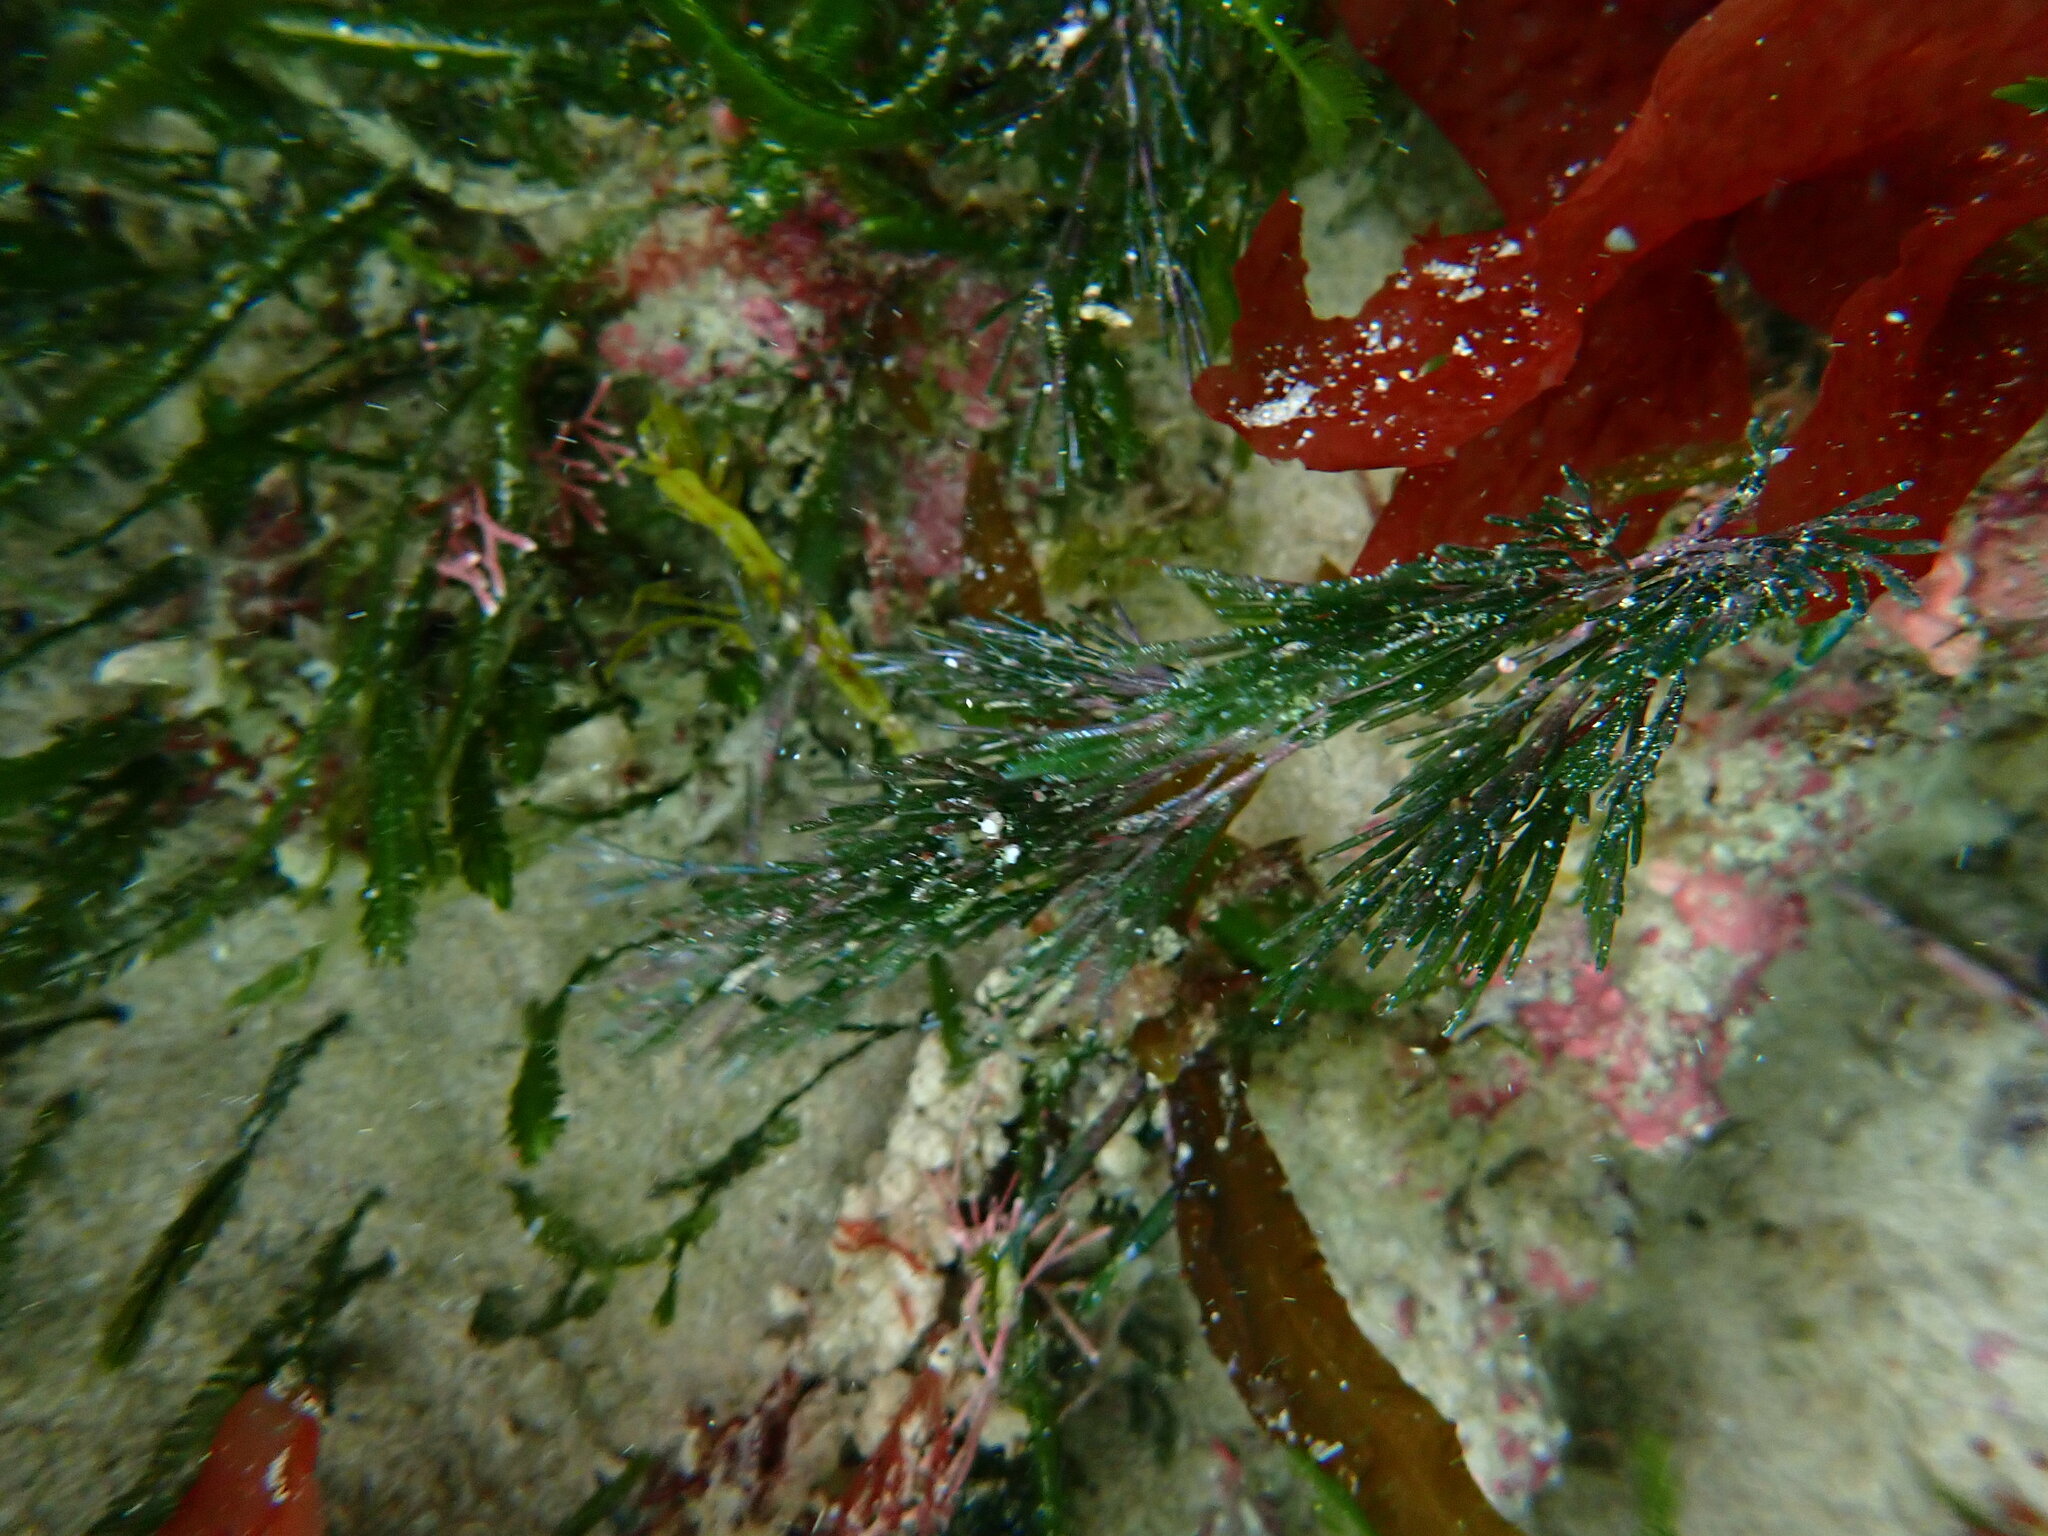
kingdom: Plantae
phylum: Chlorophyta
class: Ulvophyceae
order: Siphonocladales
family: Siphonocladaceae
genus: Apjohnia
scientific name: Apjohnia laetevirens
